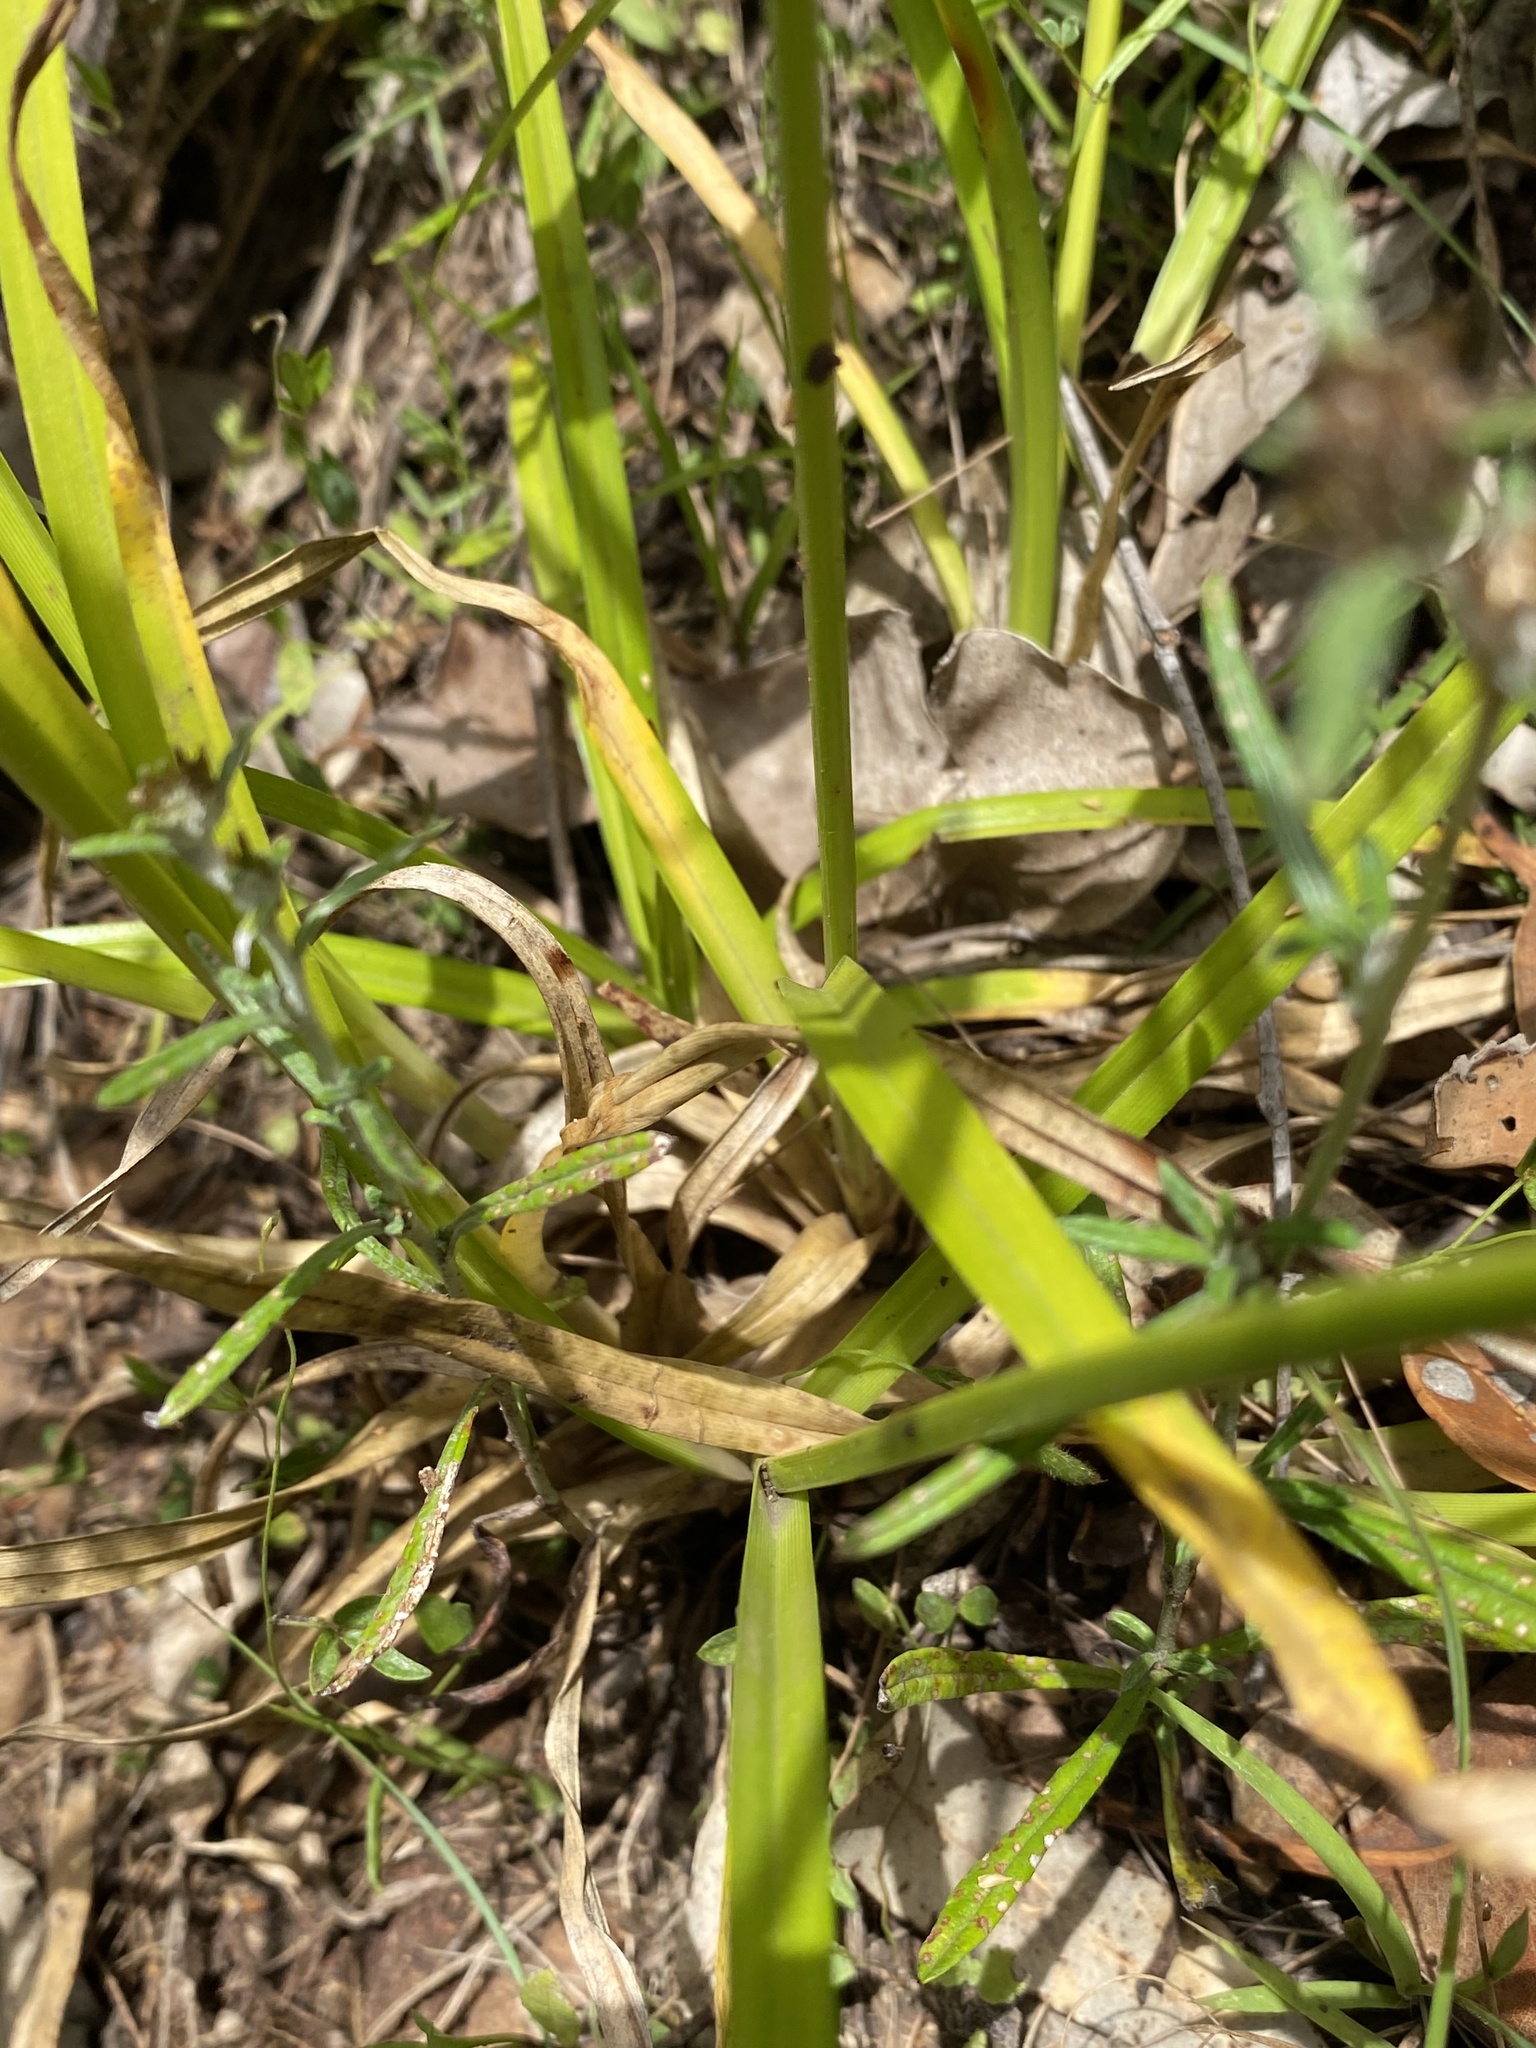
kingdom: Plantae
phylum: Tracheophyta
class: Liliopsida
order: Poales
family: Cyperaceae
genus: Cyperus
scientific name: Cyperus eragrostis
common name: Tall flatsedge
